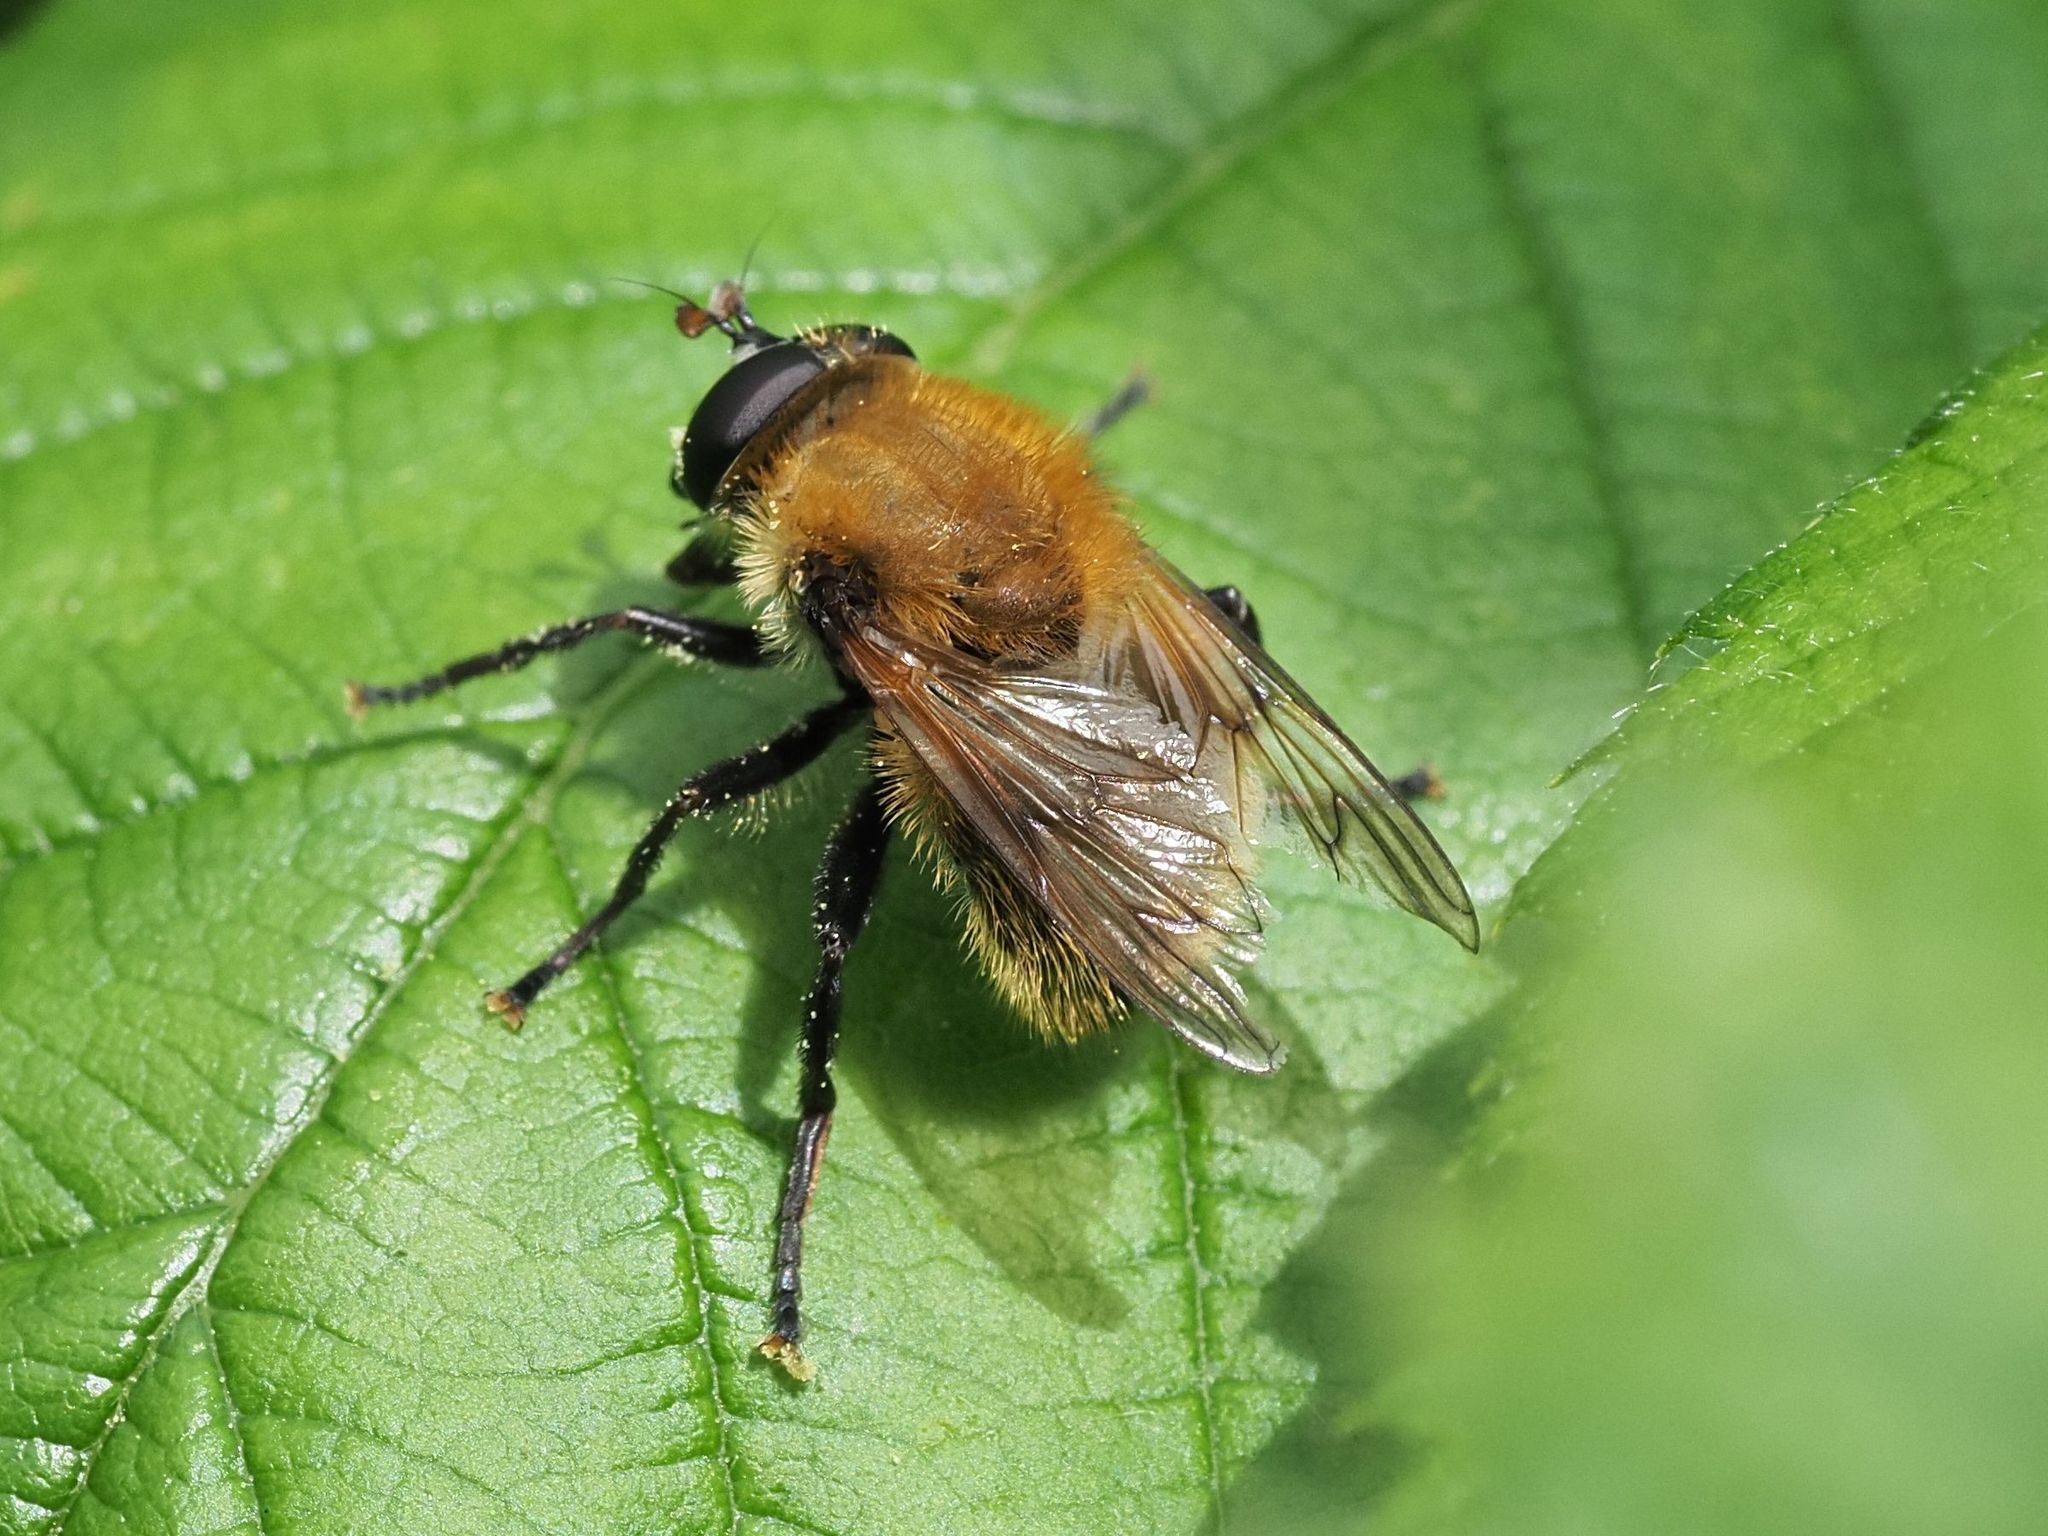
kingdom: Animalia
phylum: Arthropoda
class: Insecta
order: Diptera
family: Syrphidae
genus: Criorhina
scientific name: Criorhina berberina
